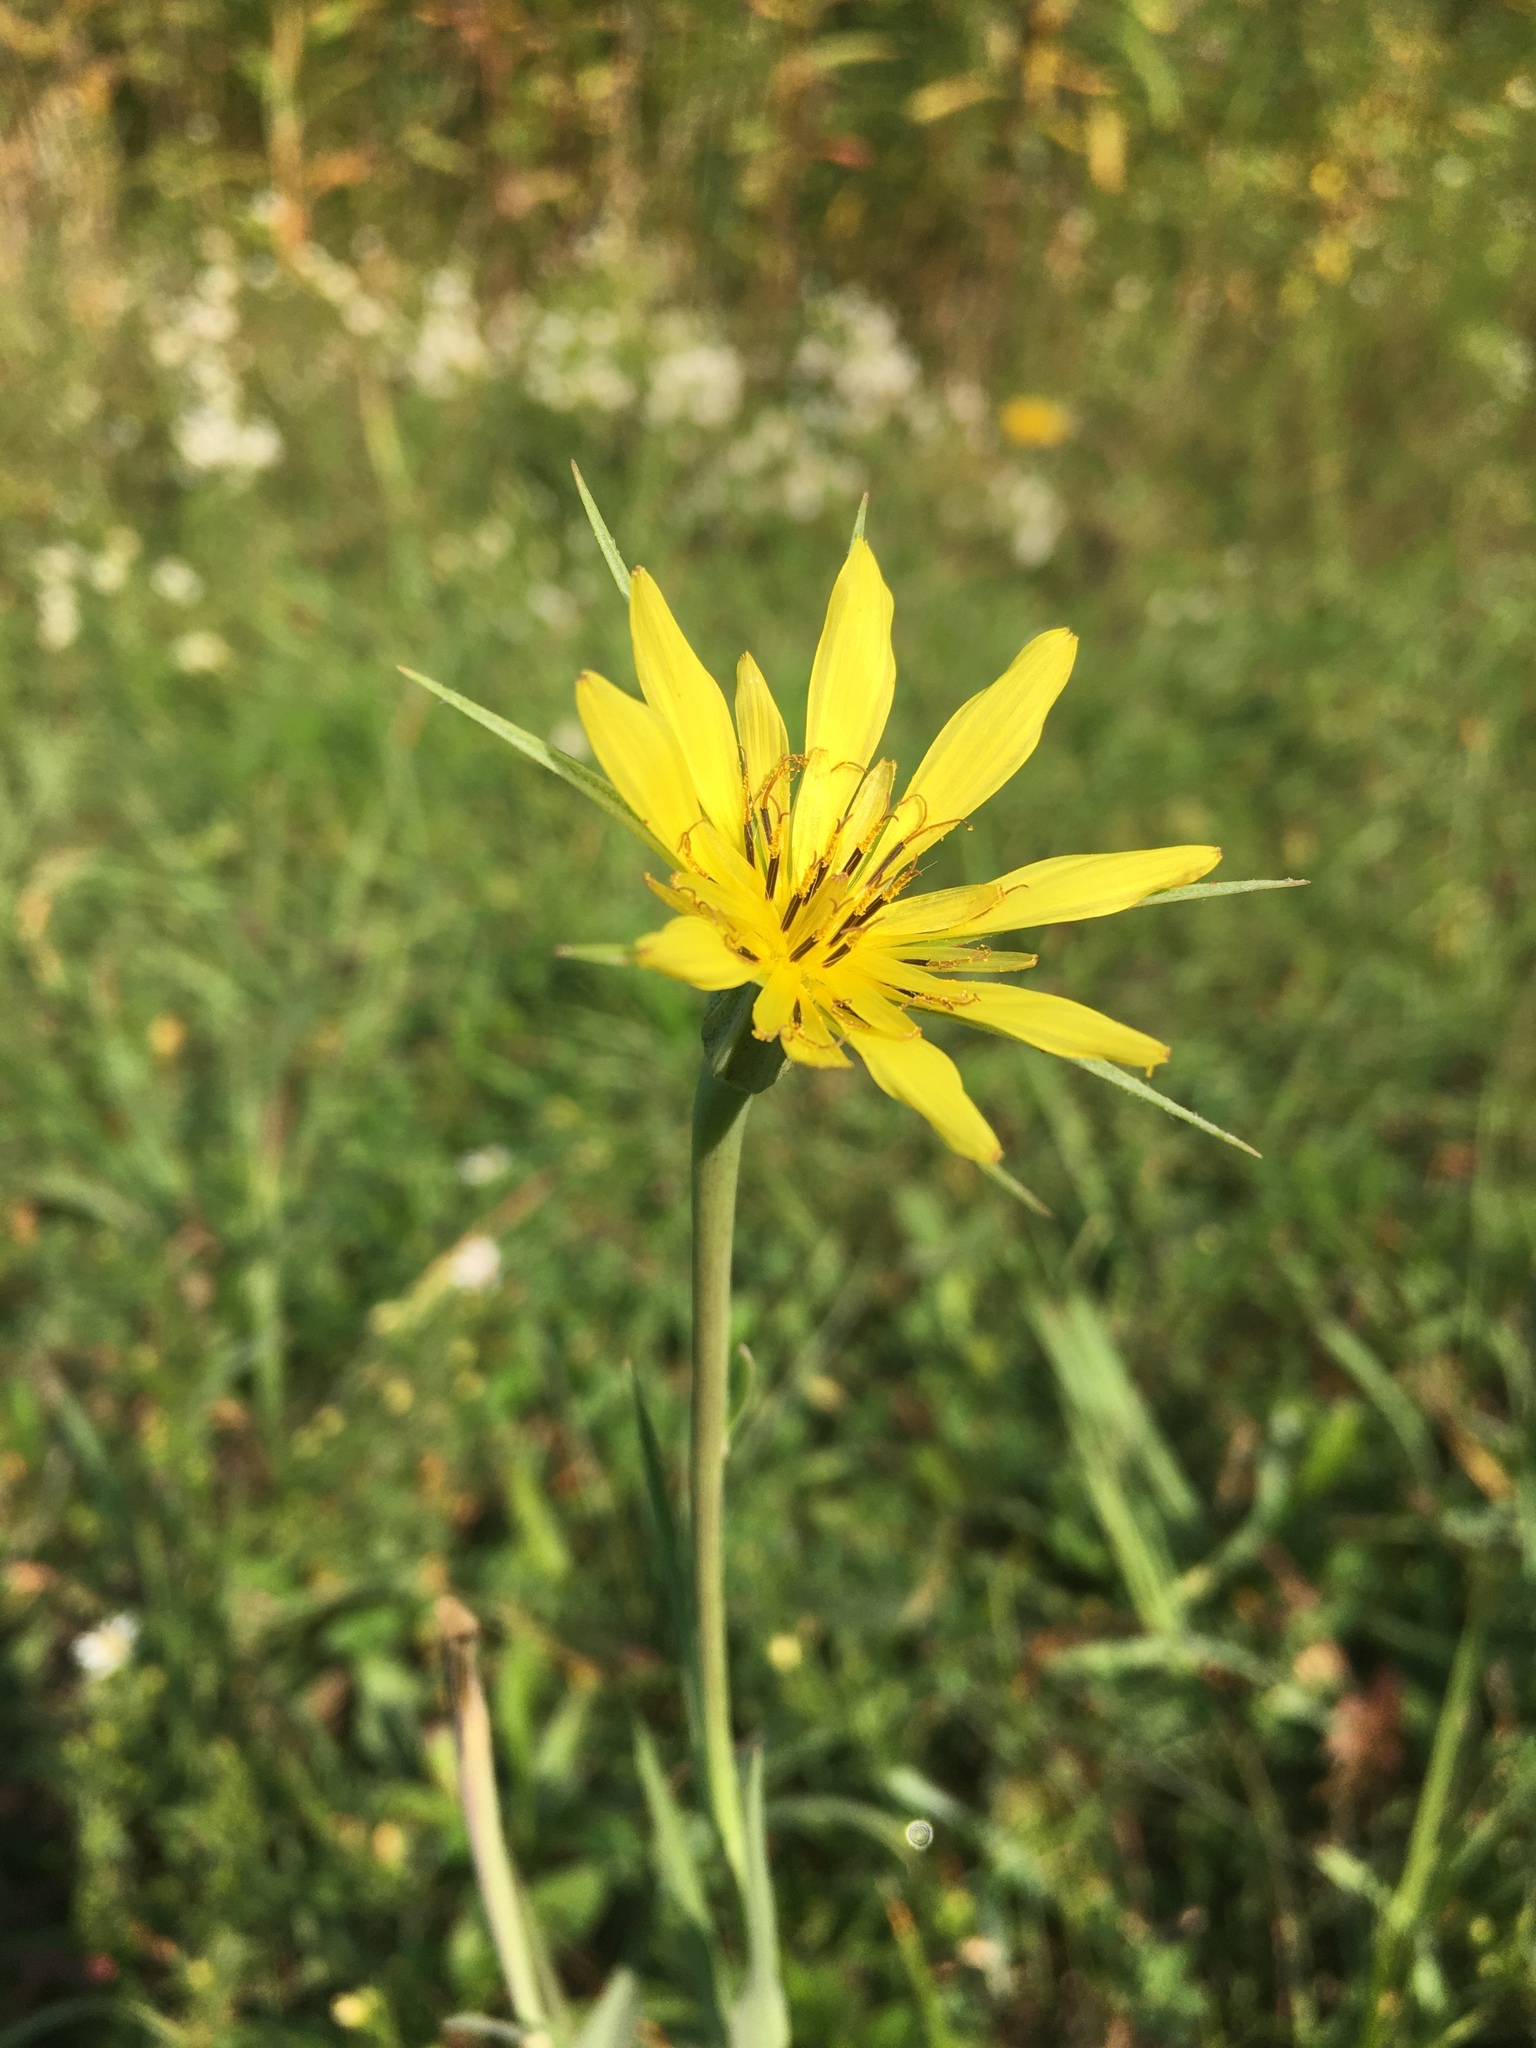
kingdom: Plantae
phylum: Tracheophyta
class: Magnoliopsida
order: Asterales
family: Asteraceae
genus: Tragopogon
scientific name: Tragopogon dubius
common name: Yellow salsify
